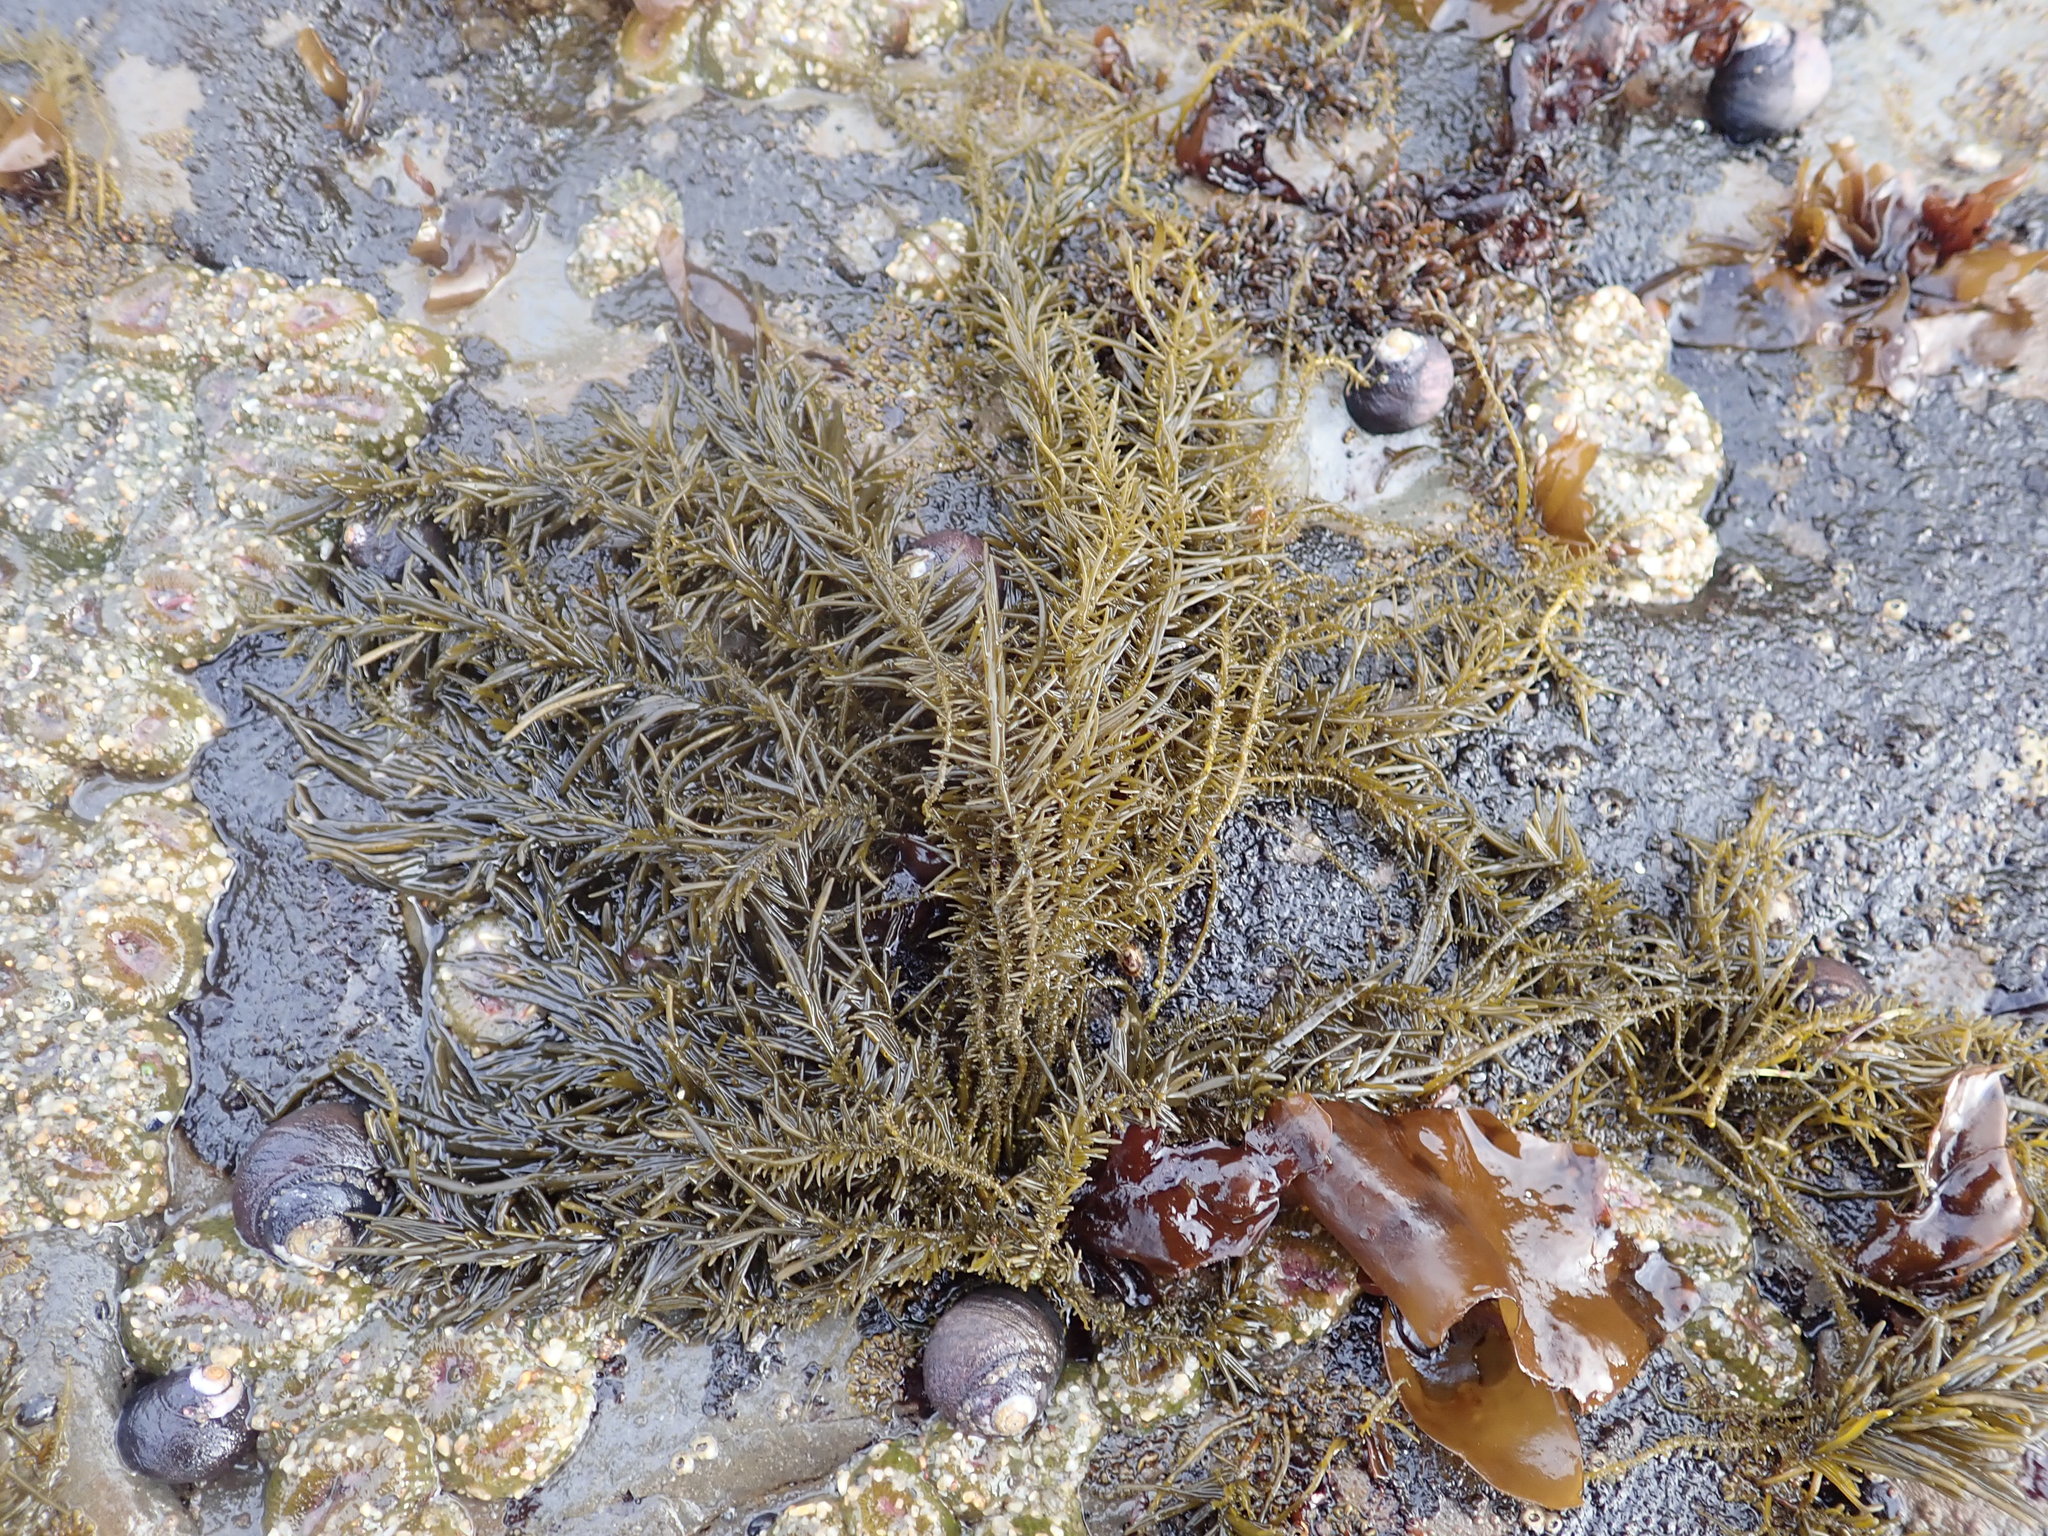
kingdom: Chromista
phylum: Ochrophyta
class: Phaeophyceae
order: Scytosiphonales
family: Scytosiphonaceae
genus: Analipus
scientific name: Analipus japonicus
